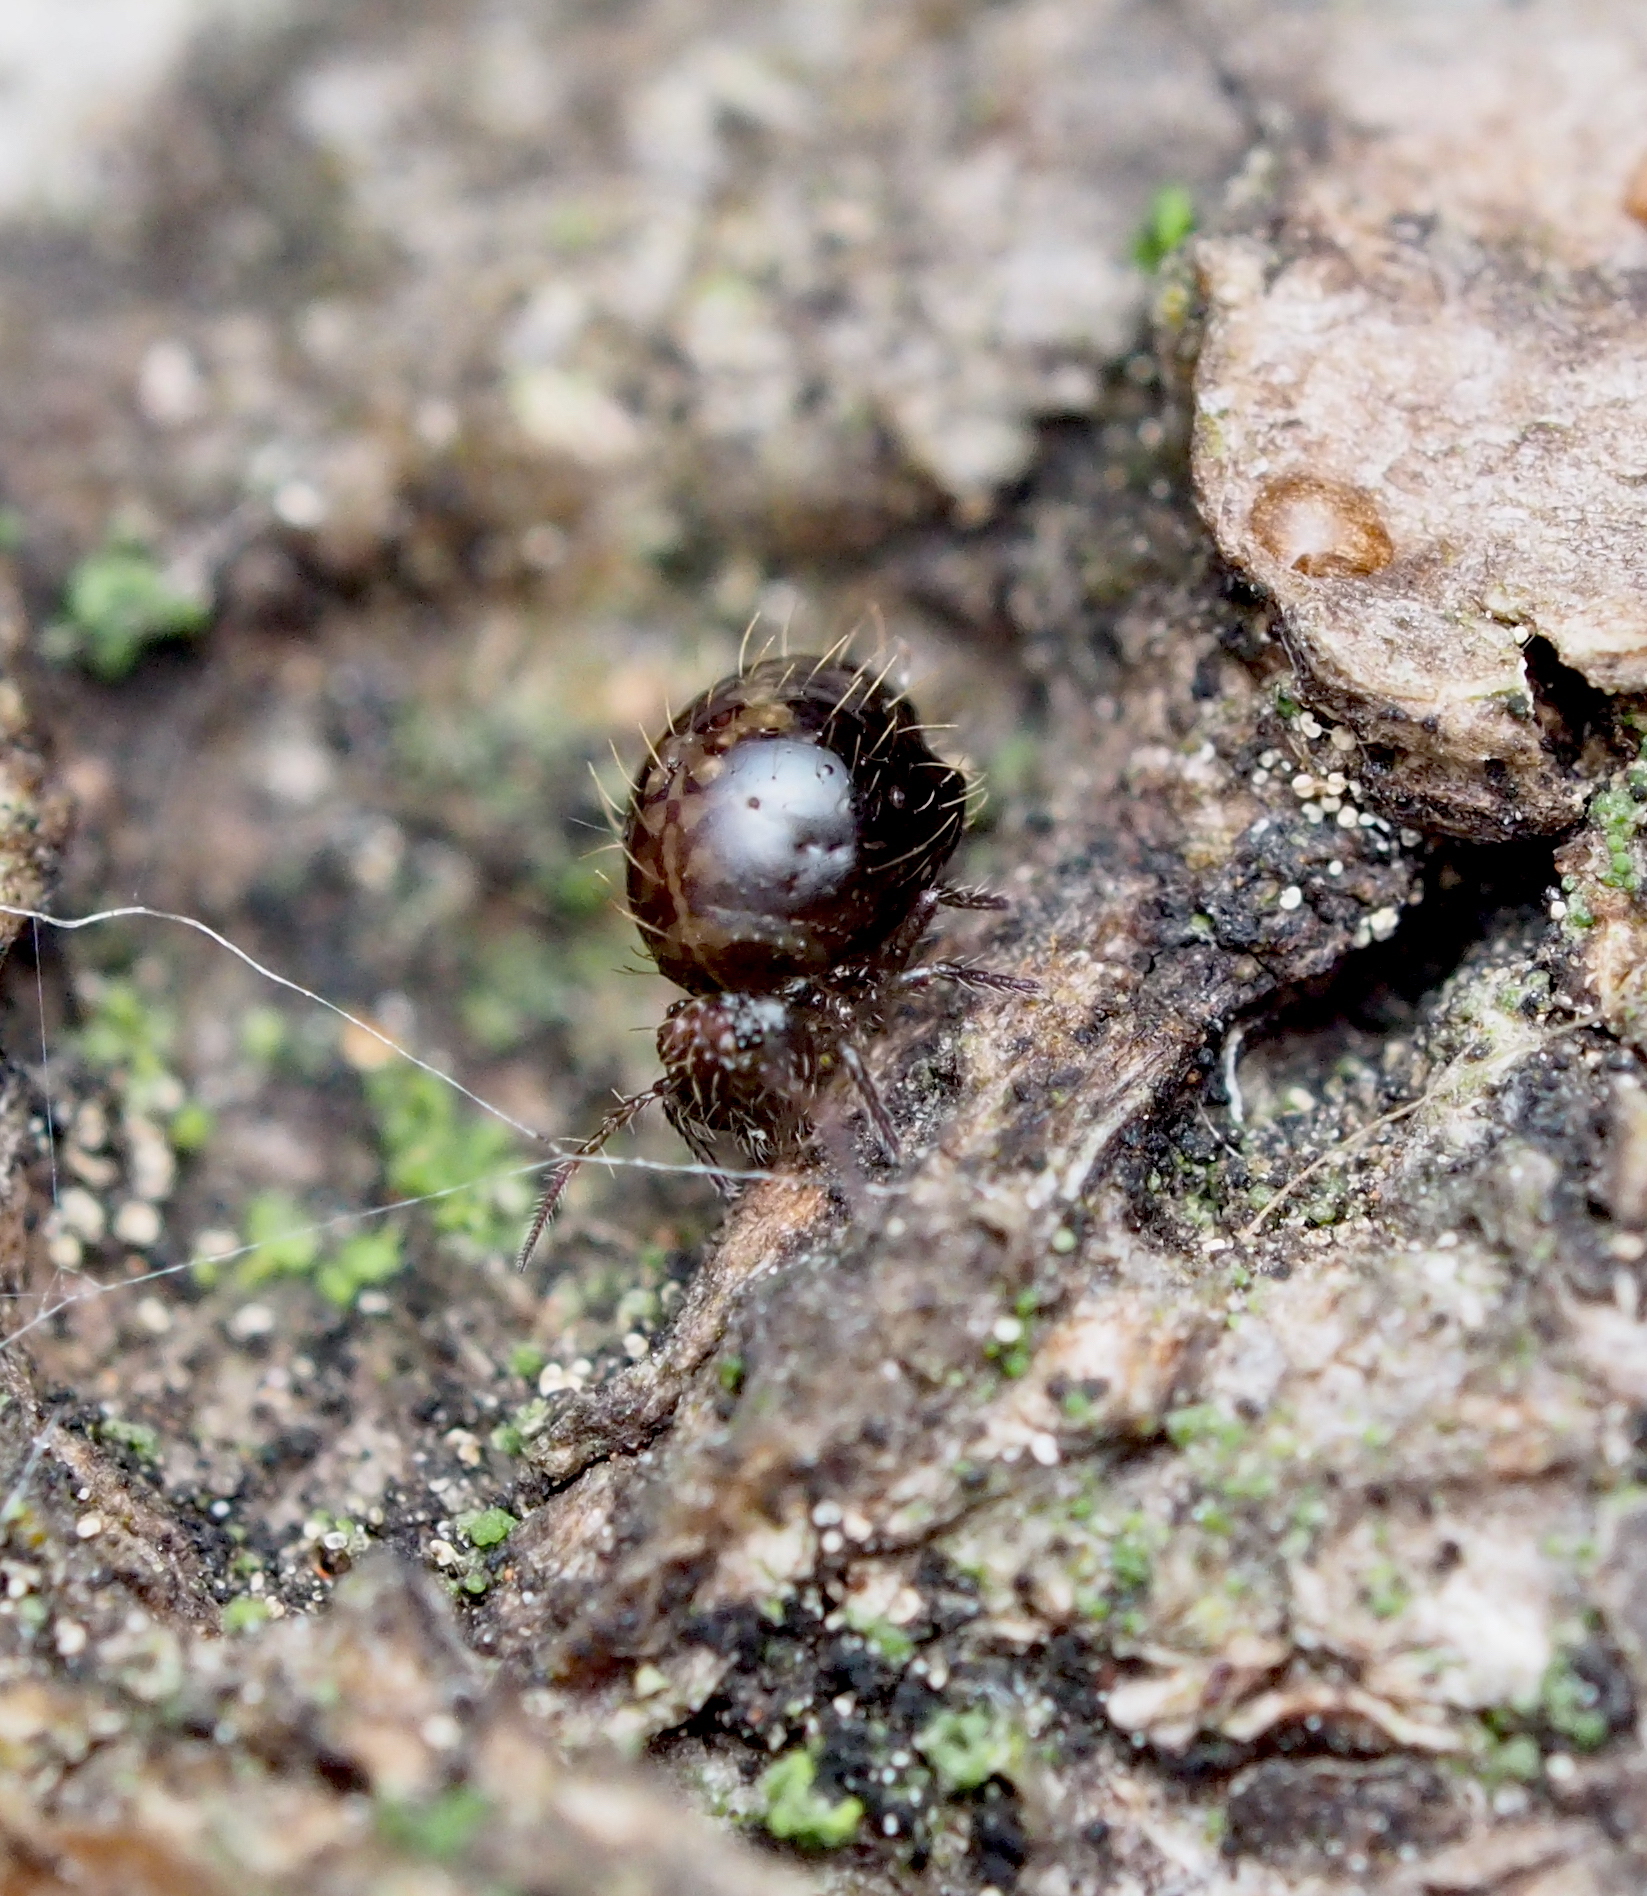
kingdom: Animalia
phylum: Arthropoda
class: Collembola
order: Symphypleona
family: Sminthuridae
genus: Allacma
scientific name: Allacma fusca
